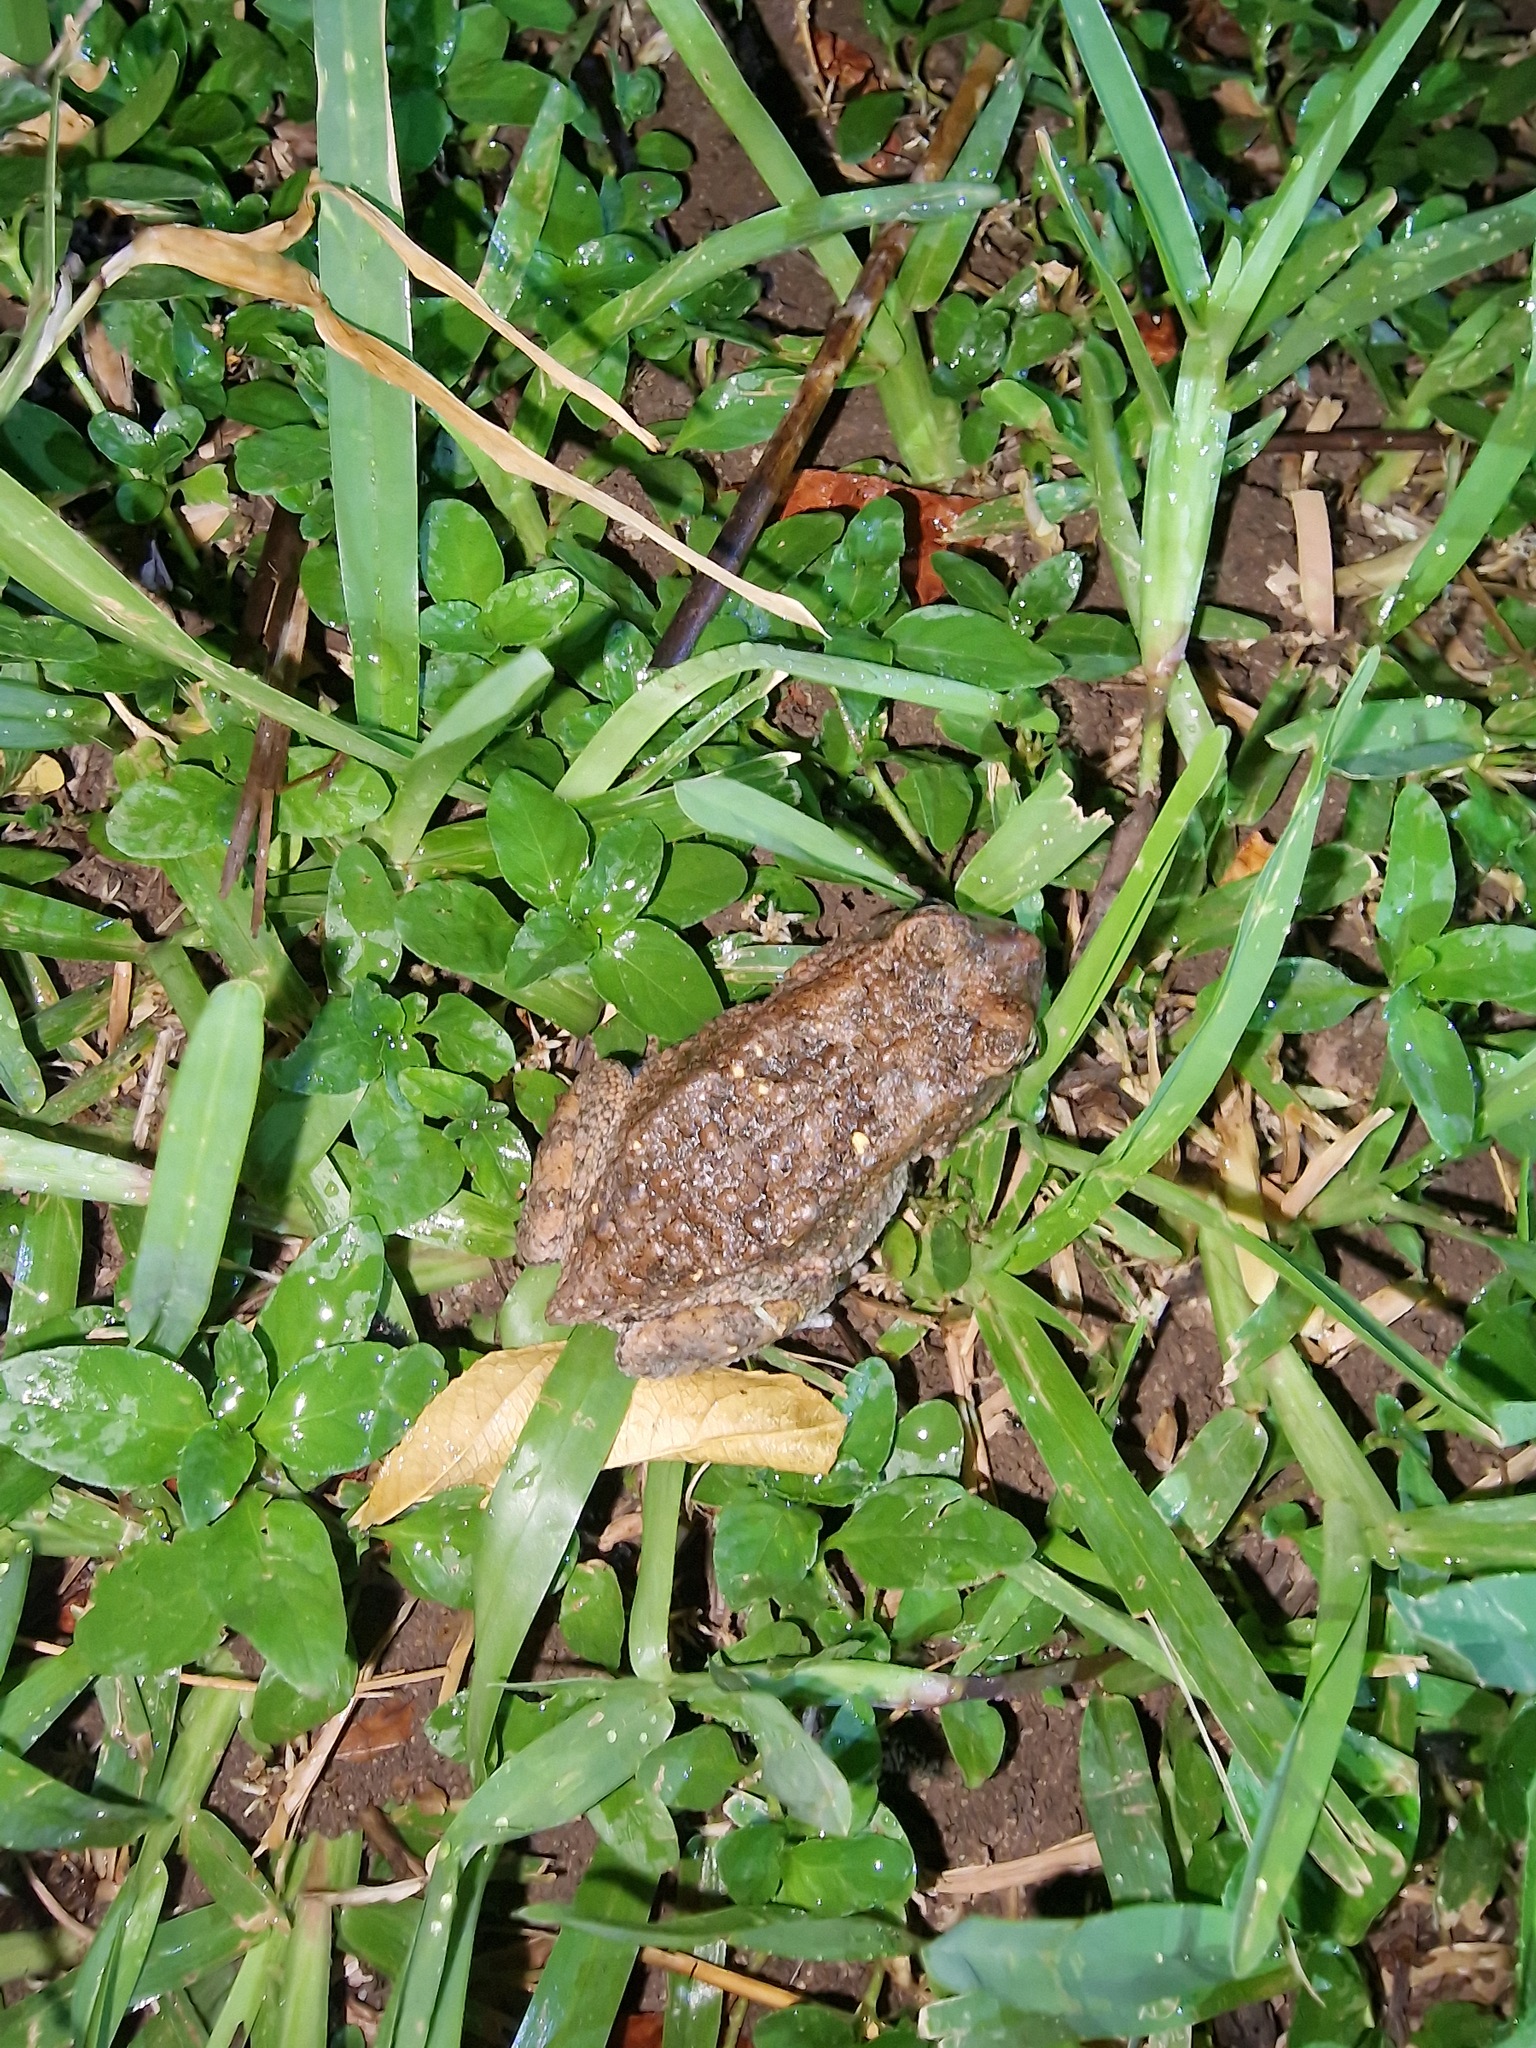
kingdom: Animalia
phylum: Chordata
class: Amphibia
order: Anura
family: Bufonidae
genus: Sclerophrys
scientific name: Sclerophrys pusilla
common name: Merten's striped toad
